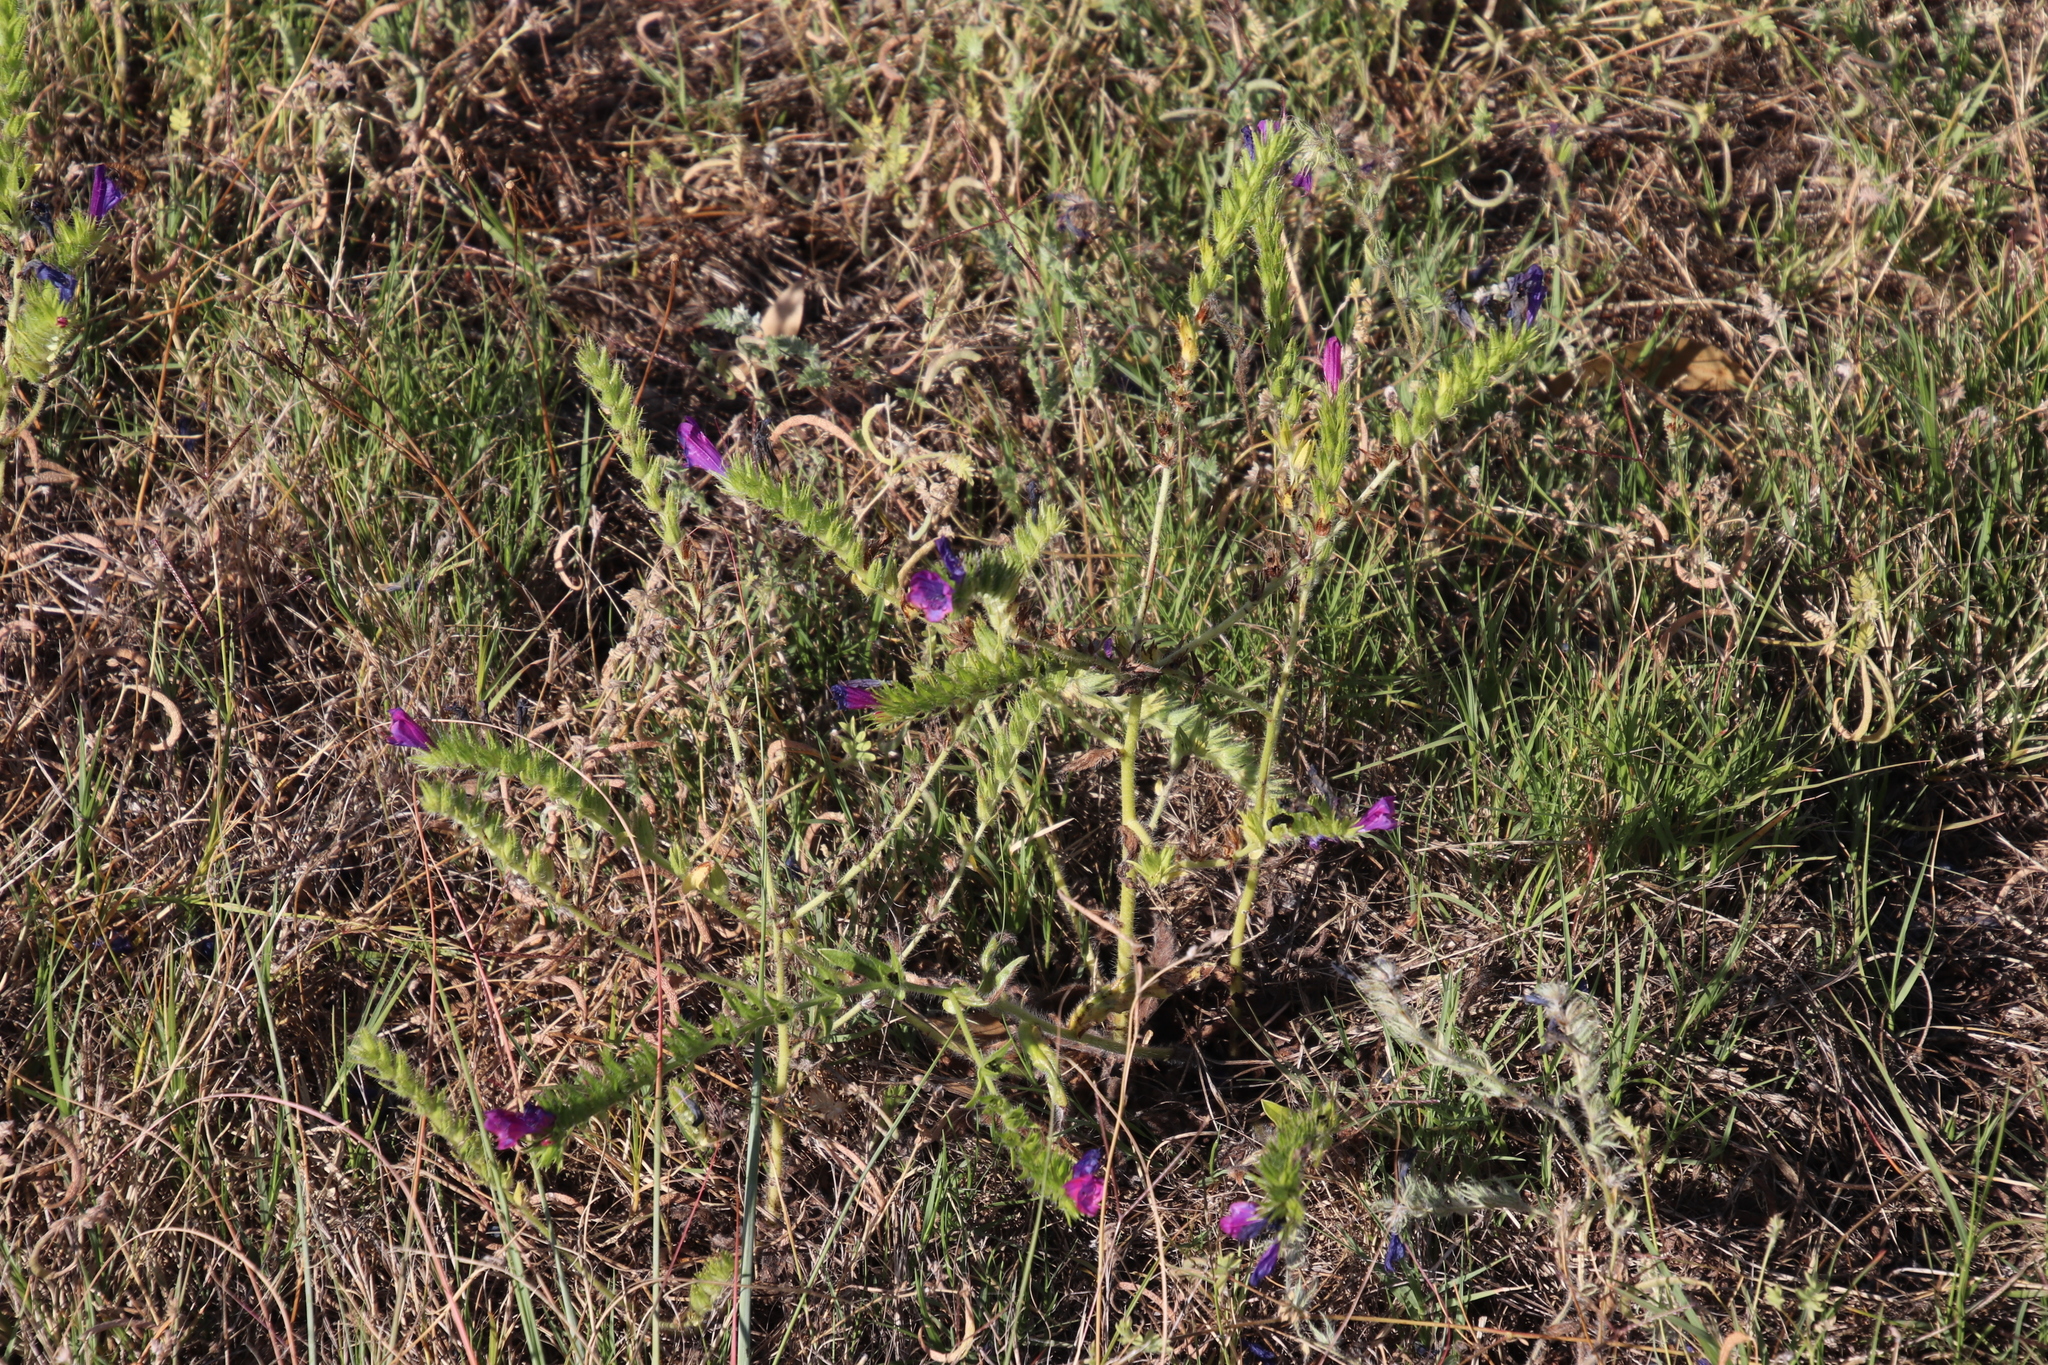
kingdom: Plantae
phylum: Tracheophyta
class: Magnoliopsida
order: Boraginales
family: Boraginaceae
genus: Echium
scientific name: Echium plantagineum
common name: Purple viper's-bugloss
